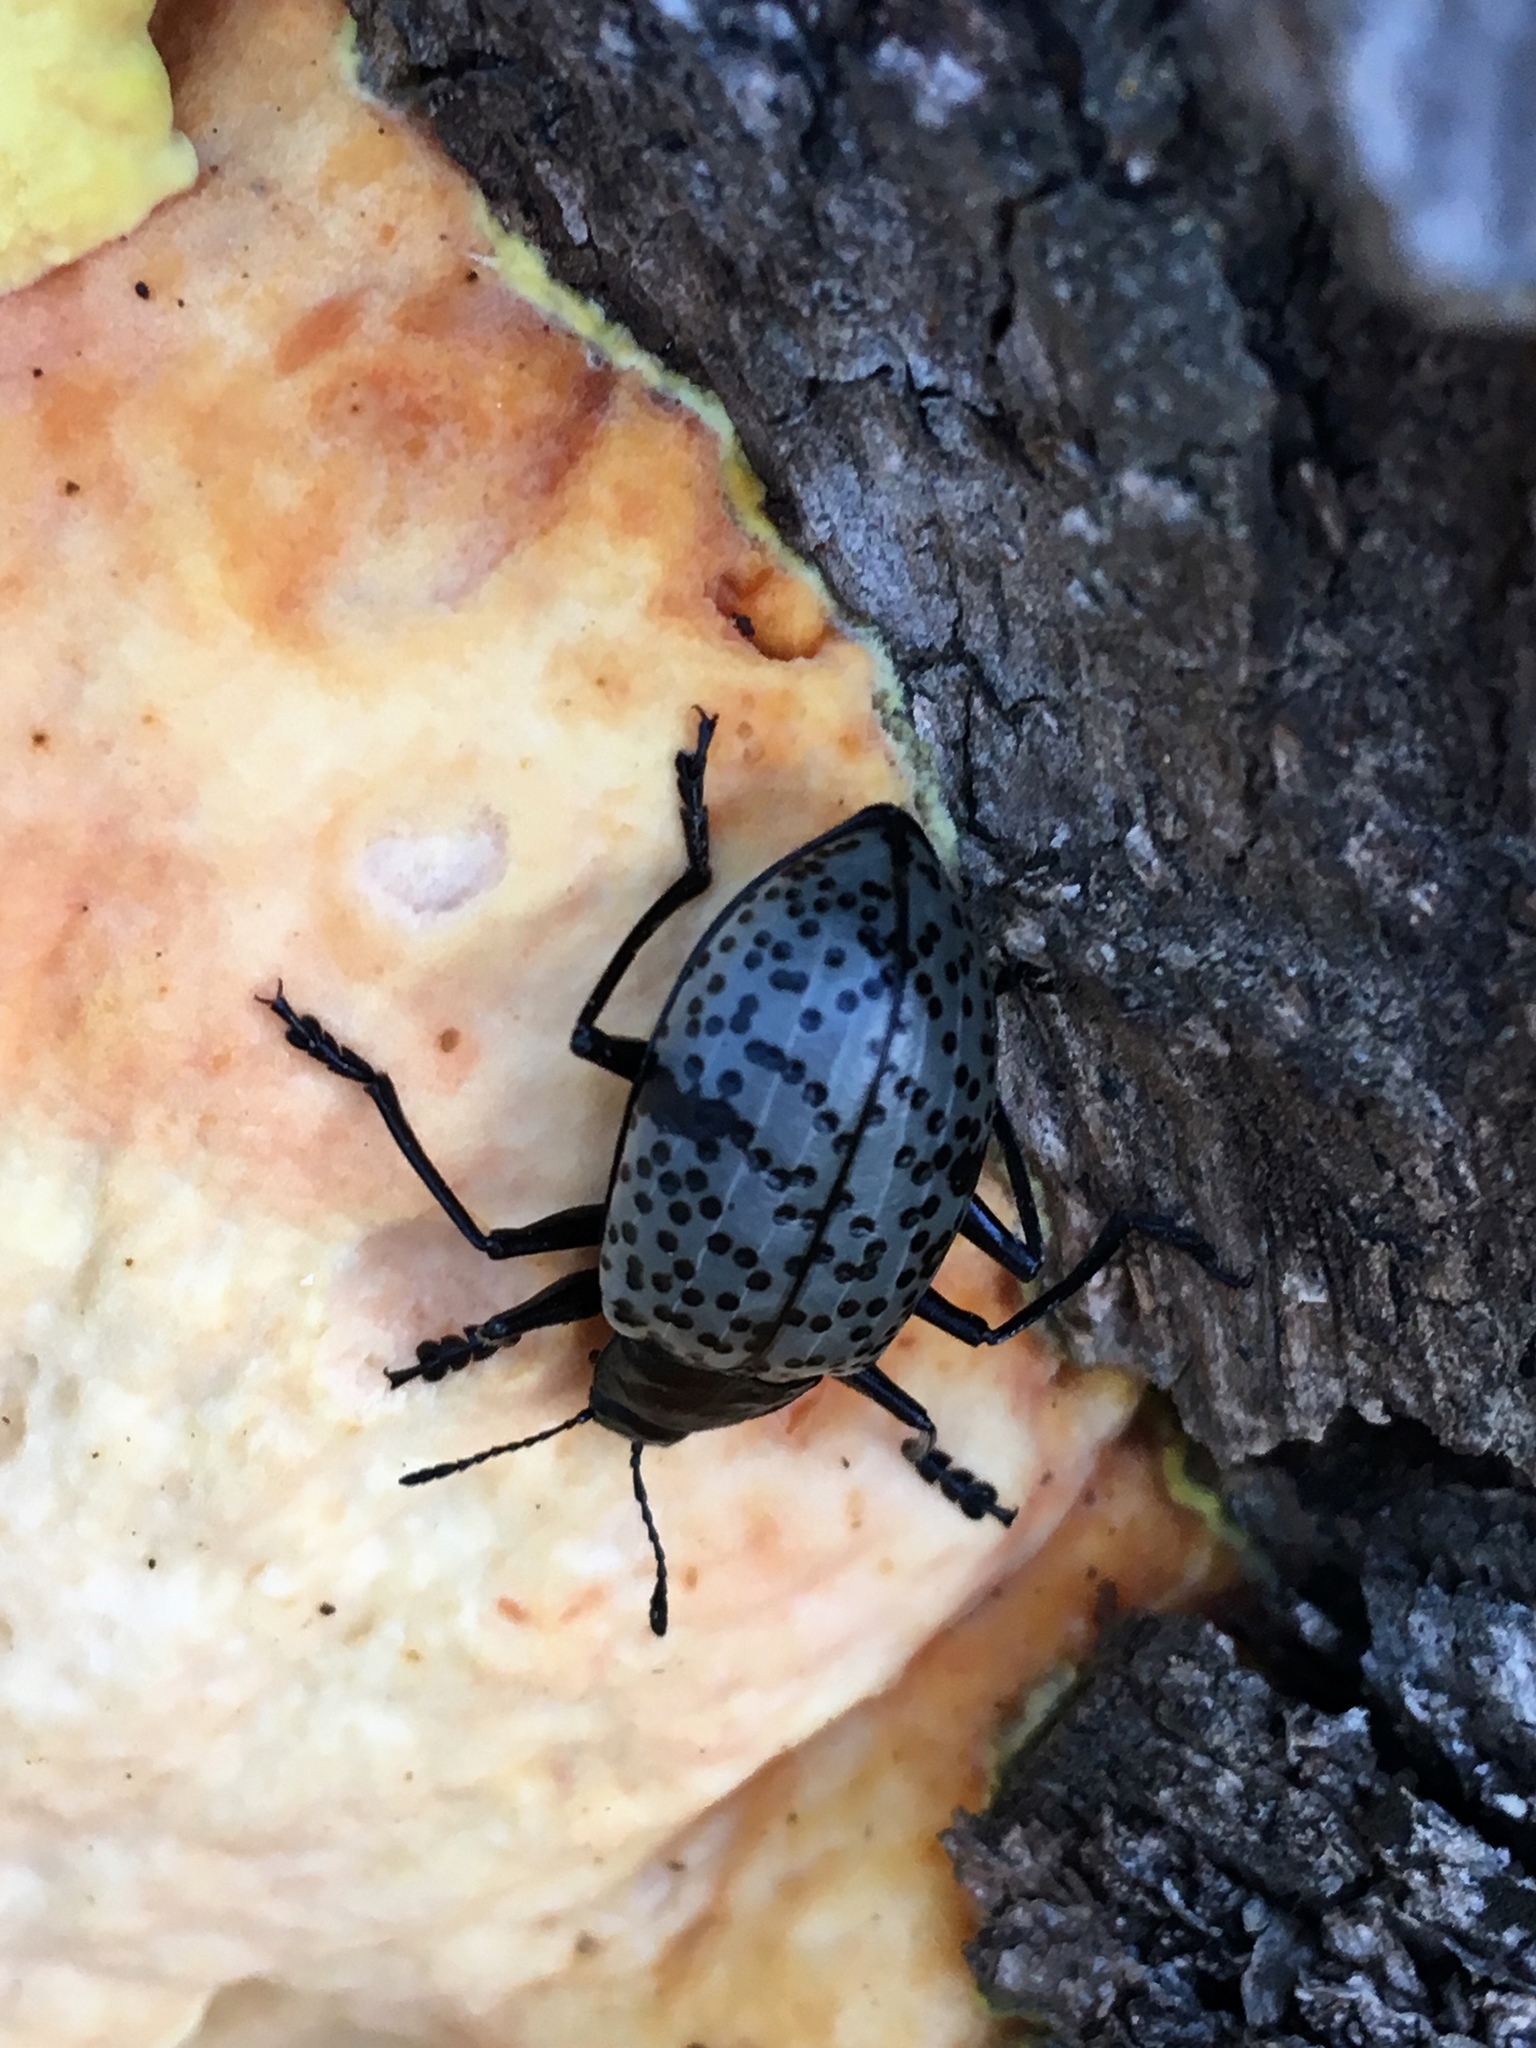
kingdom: Animalia
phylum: Arthropoda
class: Insecta
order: Coleoptera
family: Erotylidae
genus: Gibbifer
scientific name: Gibbifer californicus
